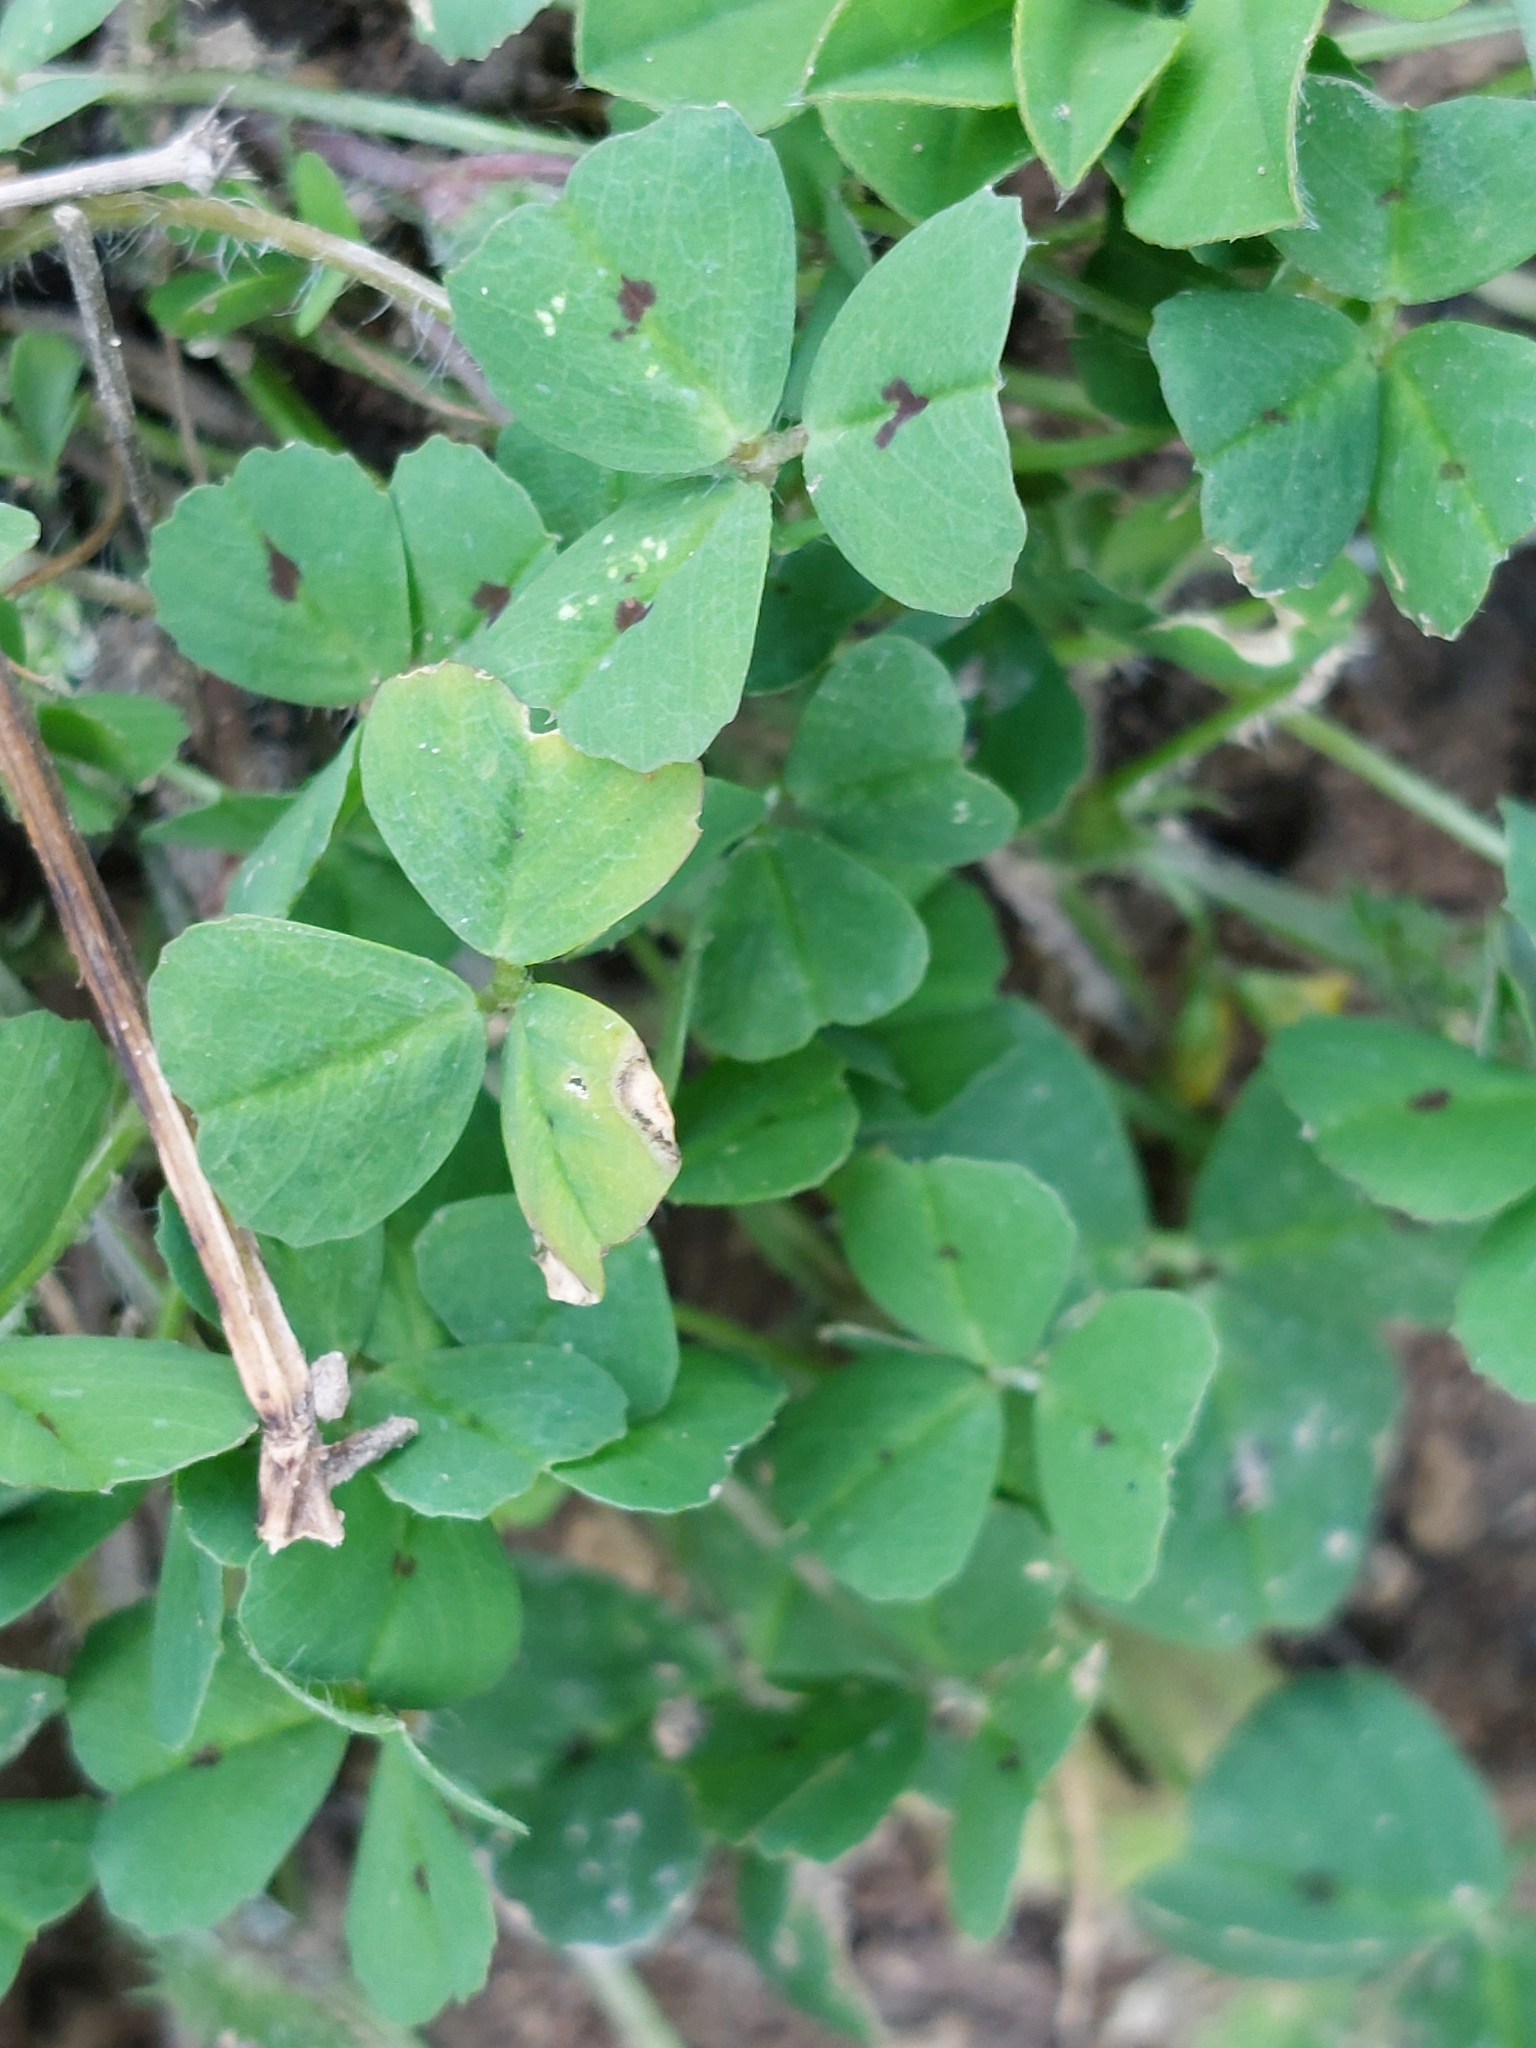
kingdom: Plantae
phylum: Tracheophyta
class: Magnoliopsida
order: Fabales
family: Fabaceae
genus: Medicago
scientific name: Medicago arabica
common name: Spotted medick
